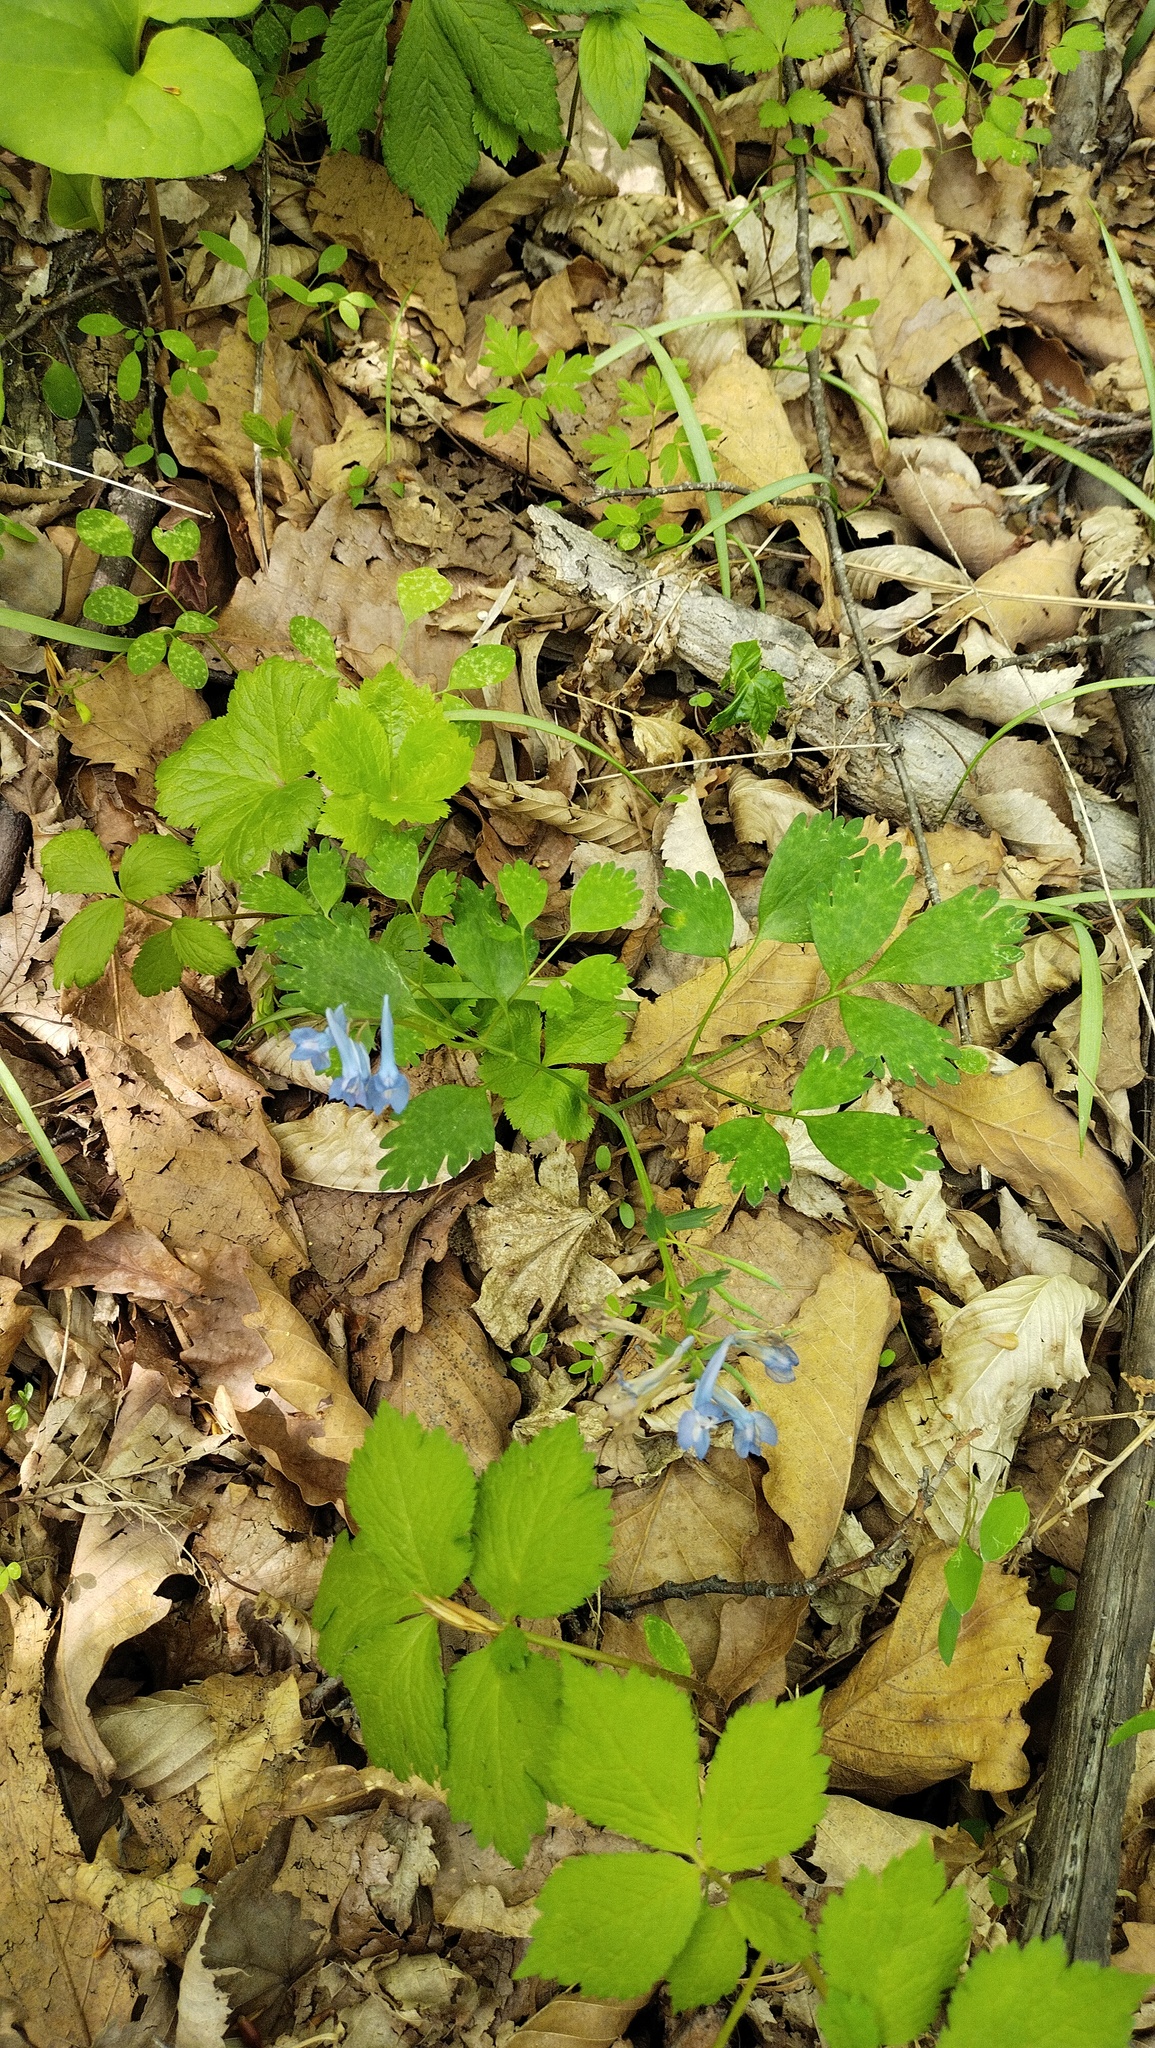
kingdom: Plantae
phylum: Tracheophyta
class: Magnoliopsida
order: Ranunculales
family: Papaveraceae
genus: Corydalis
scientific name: Corydalis ambigua
